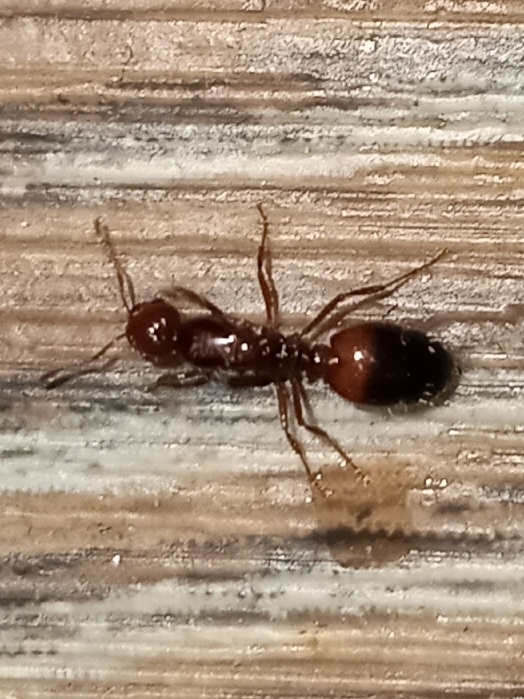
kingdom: Animalia
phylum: Arthropoda
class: Insecta
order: Hymenoptera
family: Formicidae
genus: Solenopsis
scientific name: Solenopsis invicta
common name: Red imported fire ant
